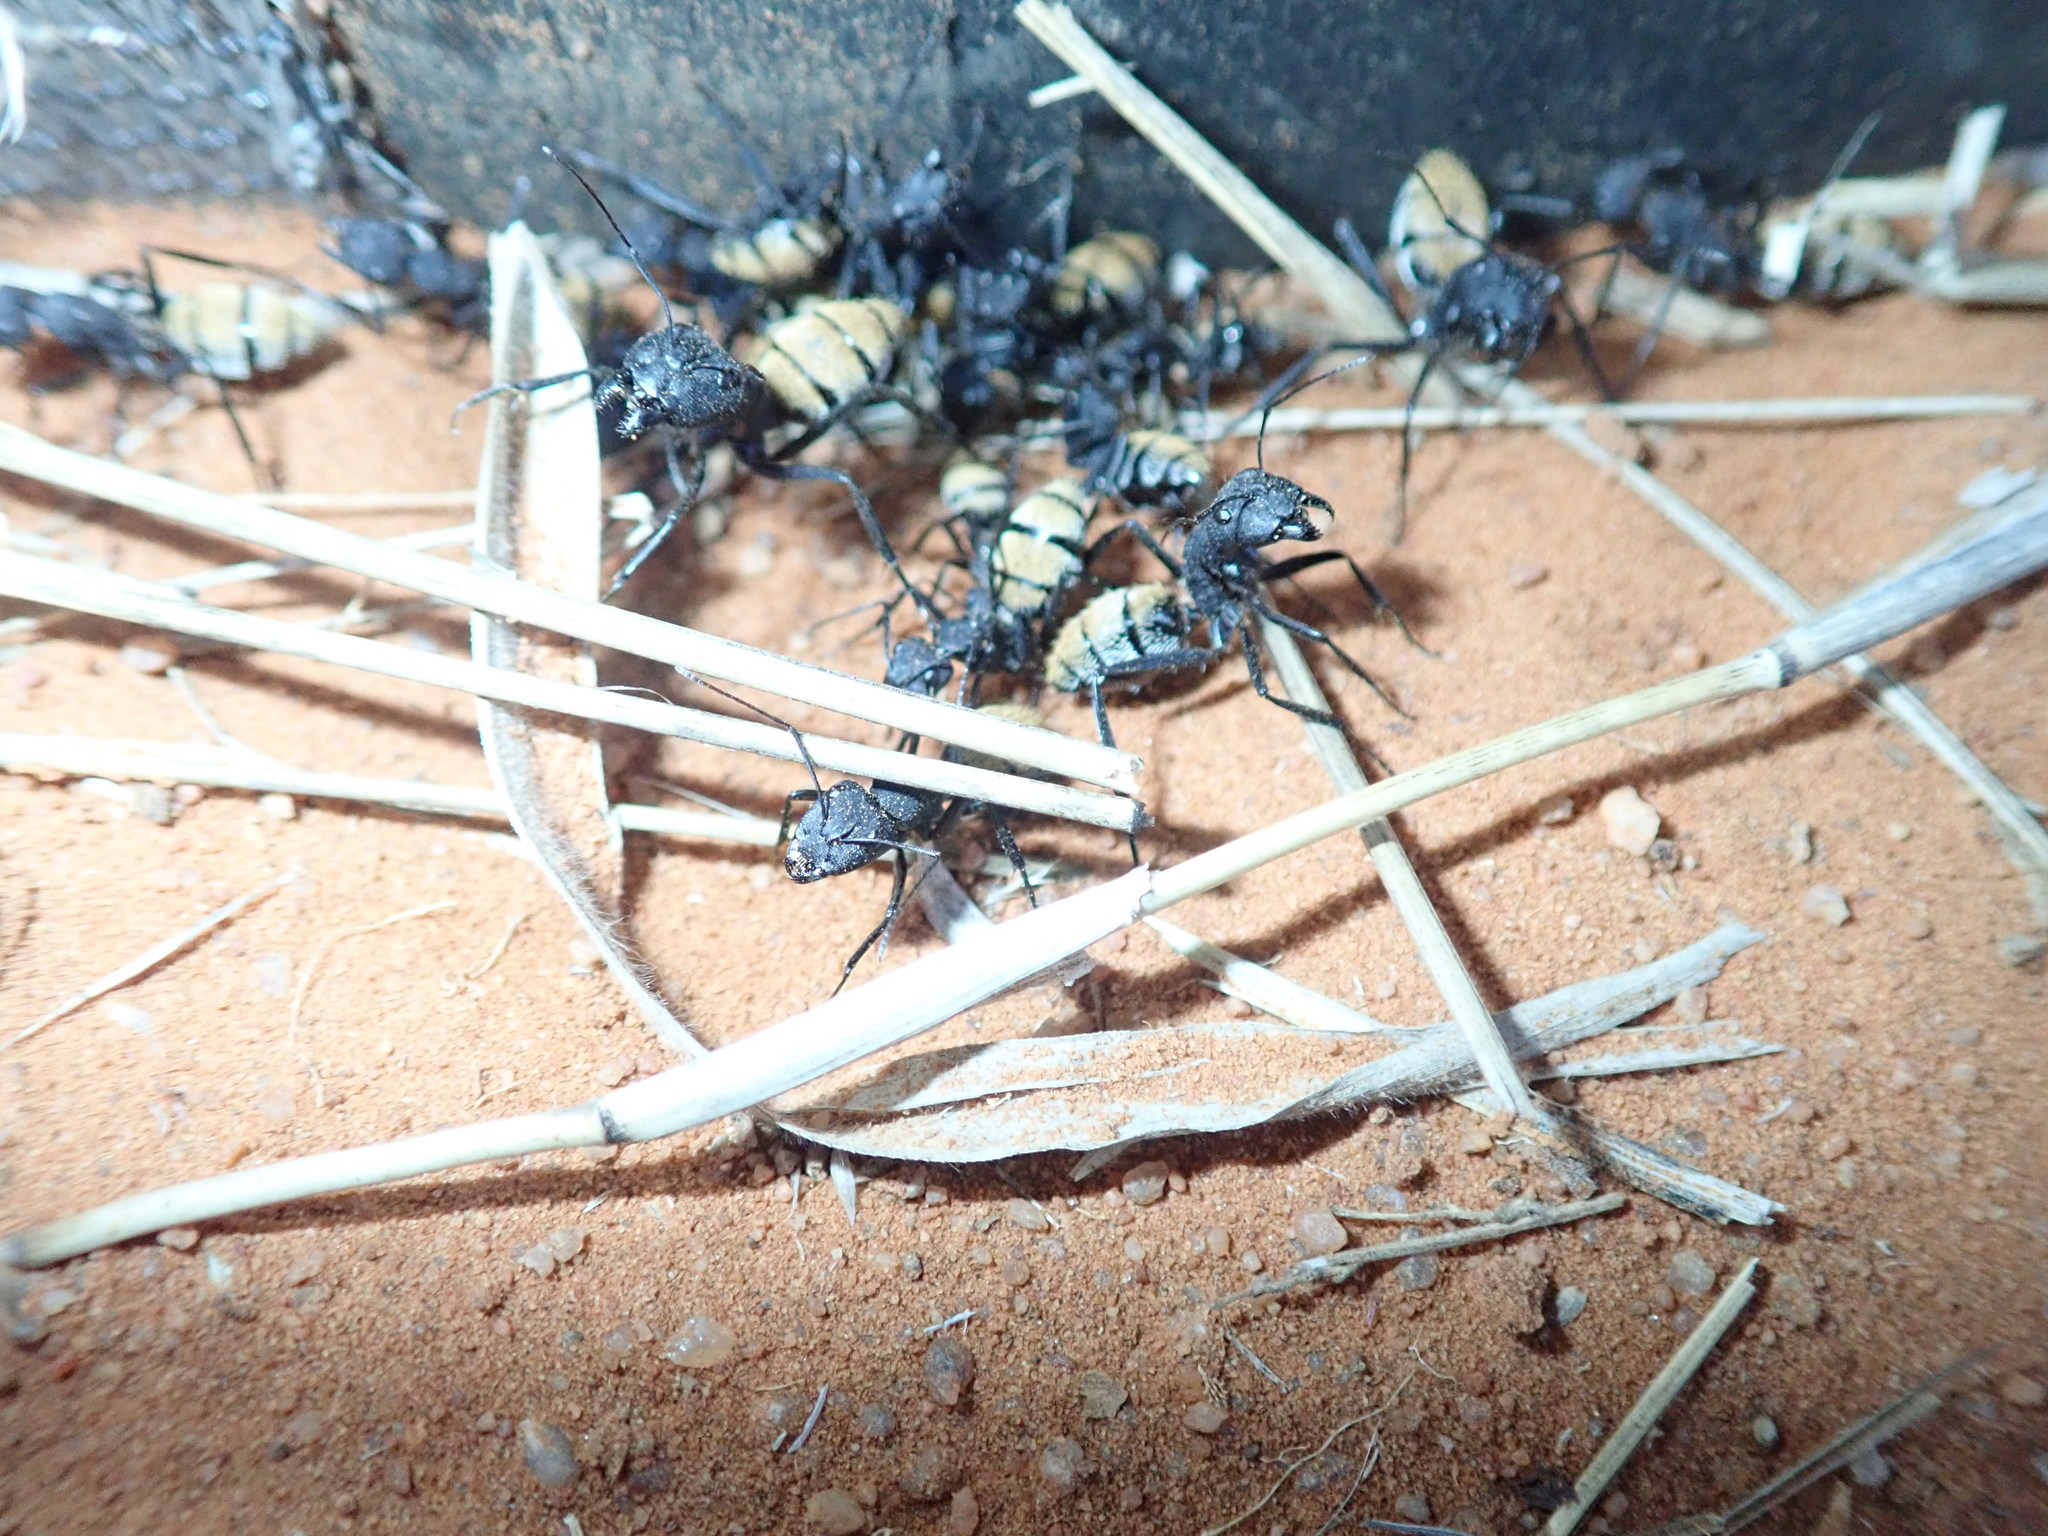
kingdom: Animalia
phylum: Arthropoda
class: Insecta
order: Hymenoptera
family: Formicidae
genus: Camponotus
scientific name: Camponotus fulvopilosus
